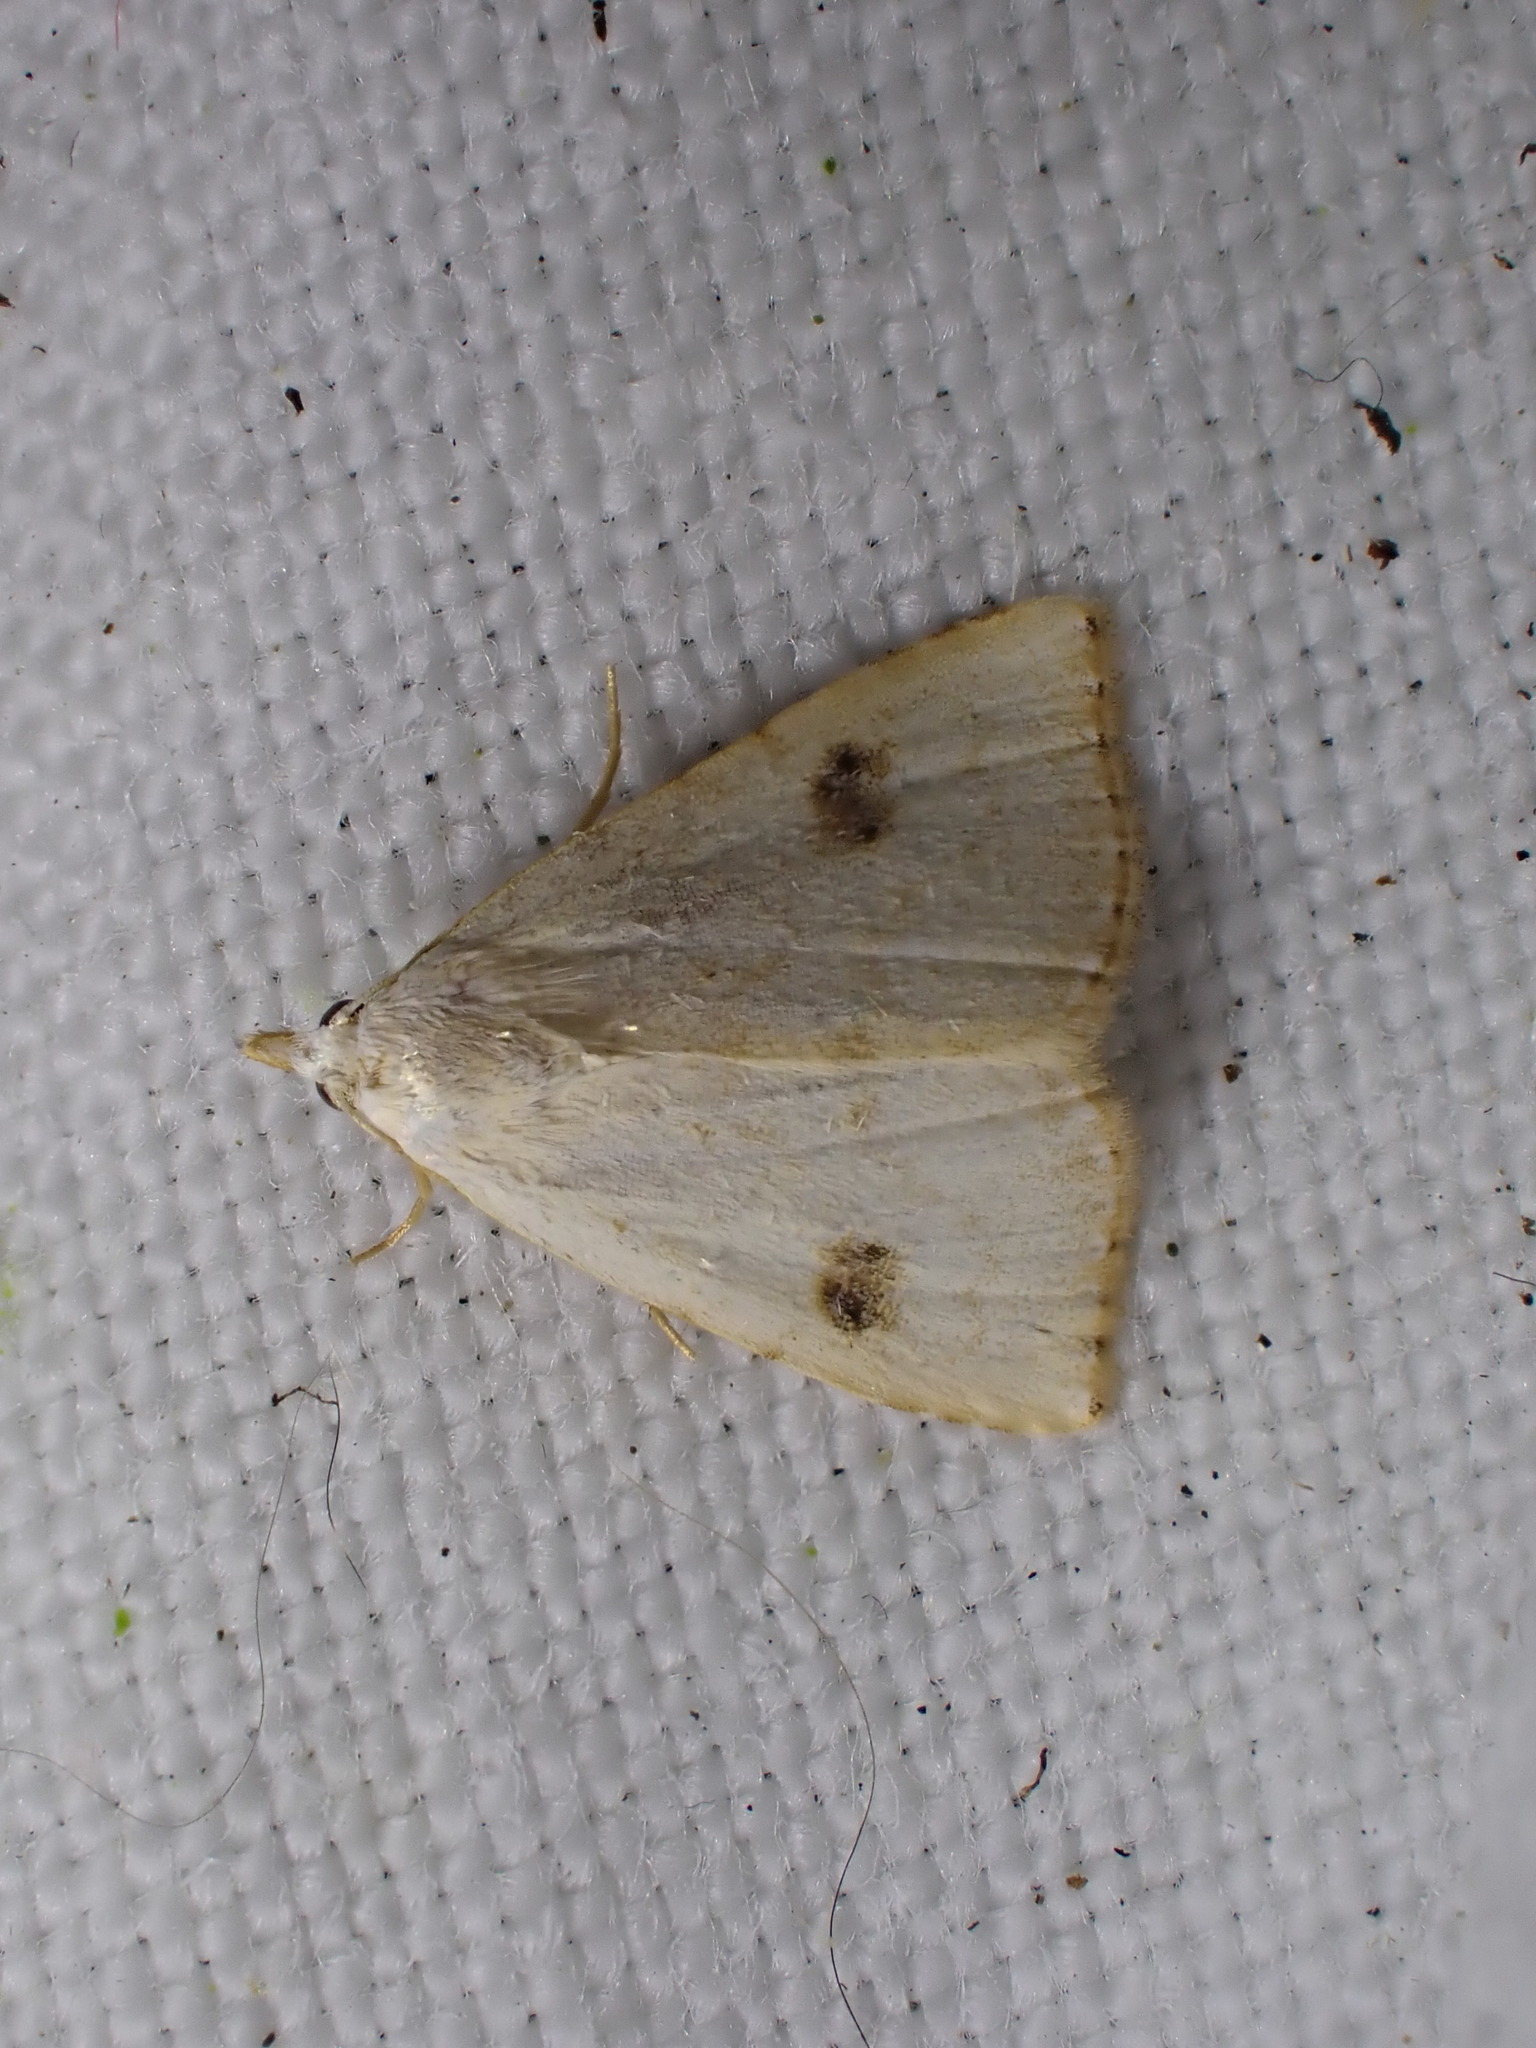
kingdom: Animalia
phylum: Arthropoda
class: Insecta
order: Lepidoptera
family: Erebidae
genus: Rivula
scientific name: Rivula sericealis
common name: Straw dot
